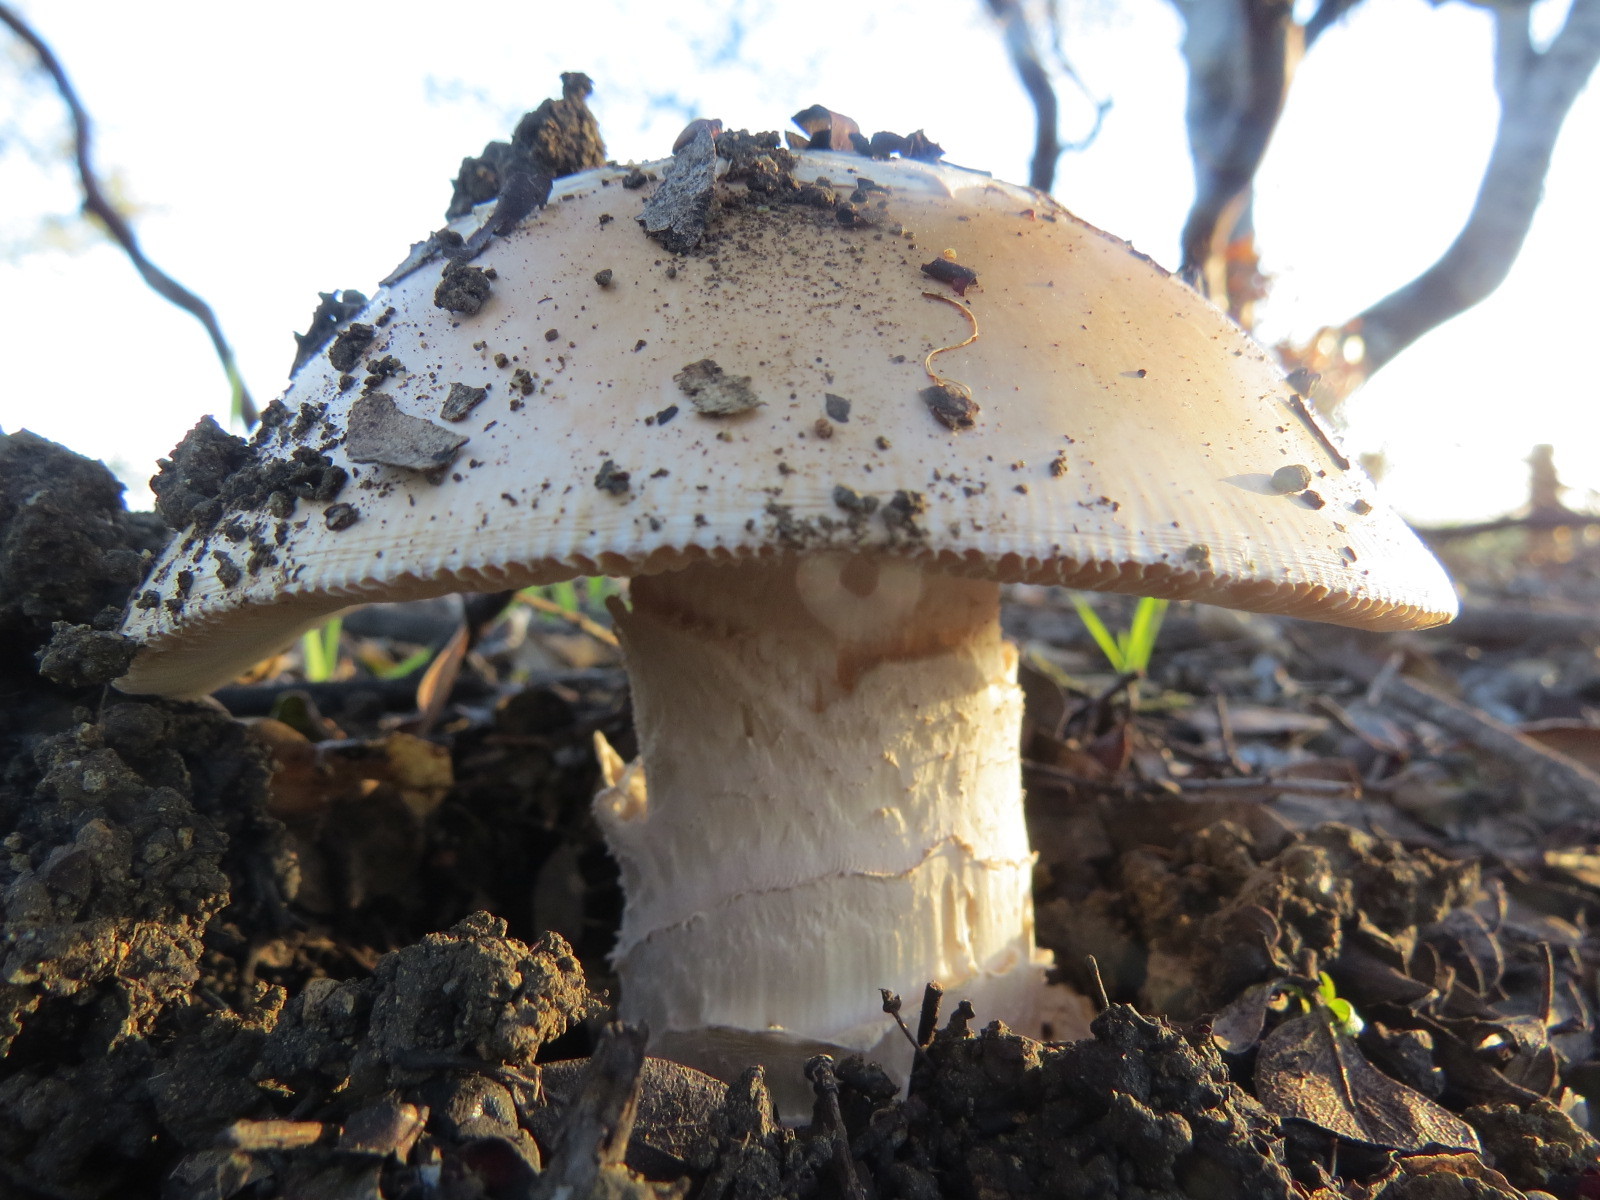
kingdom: Fungi
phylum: Basidiomycota
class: Agaricomycetes
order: Agaricales
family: Amanitaceae
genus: Amanita
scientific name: Amanita velosa
